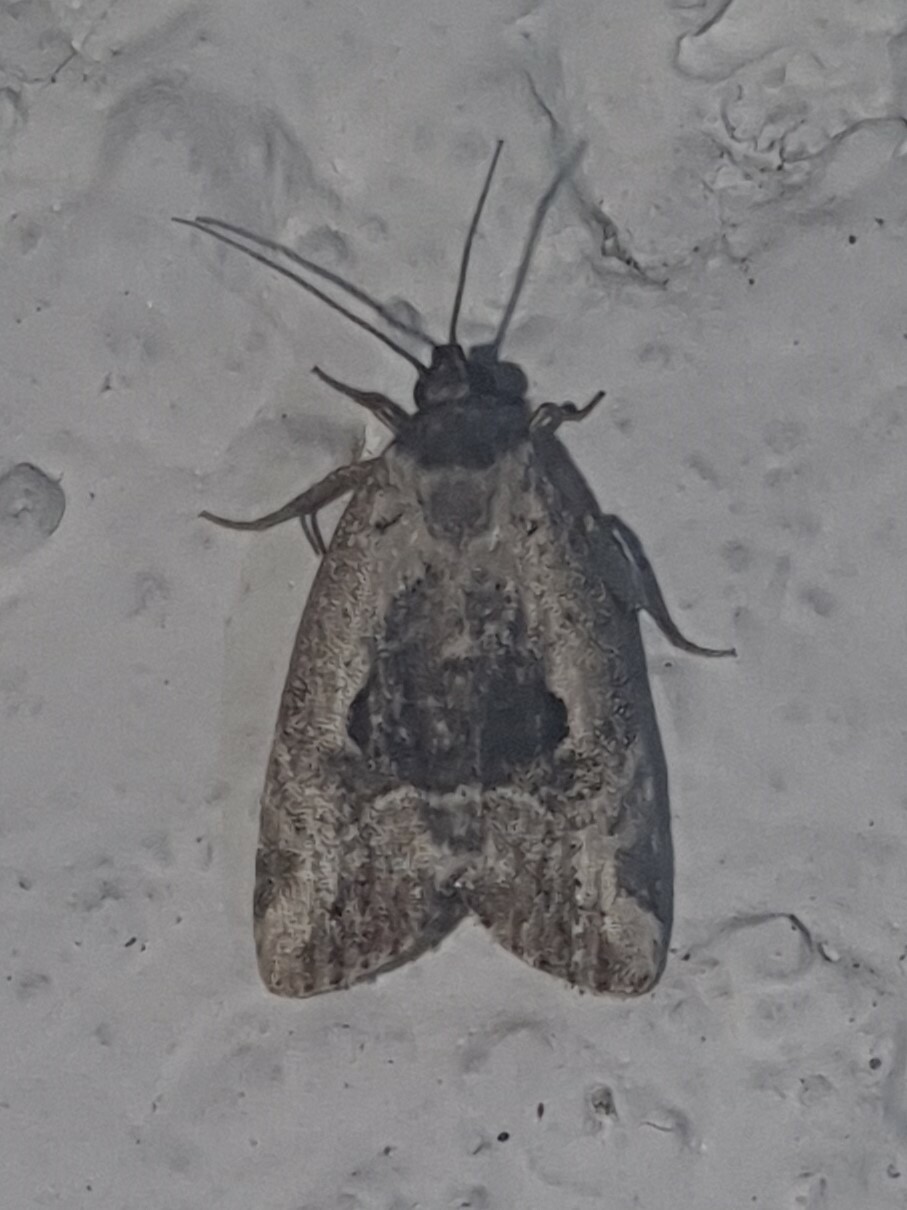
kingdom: Animalia
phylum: Arthropoda
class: Insecta
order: Lepidoptera
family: Noctuidae
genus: Elaphria
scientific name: Elaphria venustula
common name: Rosy marbled
